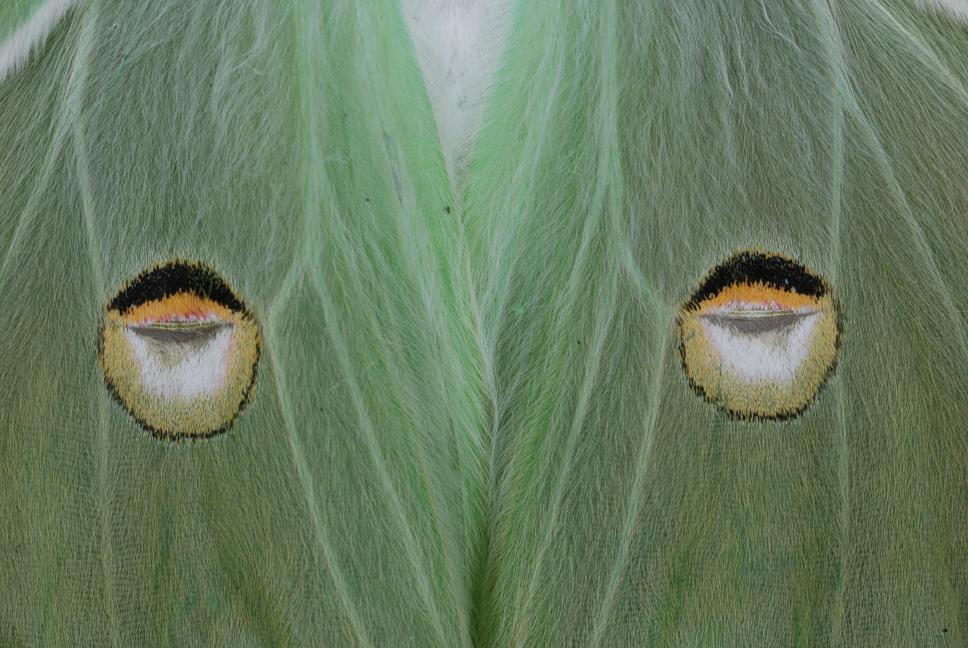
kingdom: Animalia
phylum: Arthropoda
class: Insecta
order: Lepidoptera
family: Saturniidae
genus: Actias
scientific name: Actias luna
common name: Luna moth
